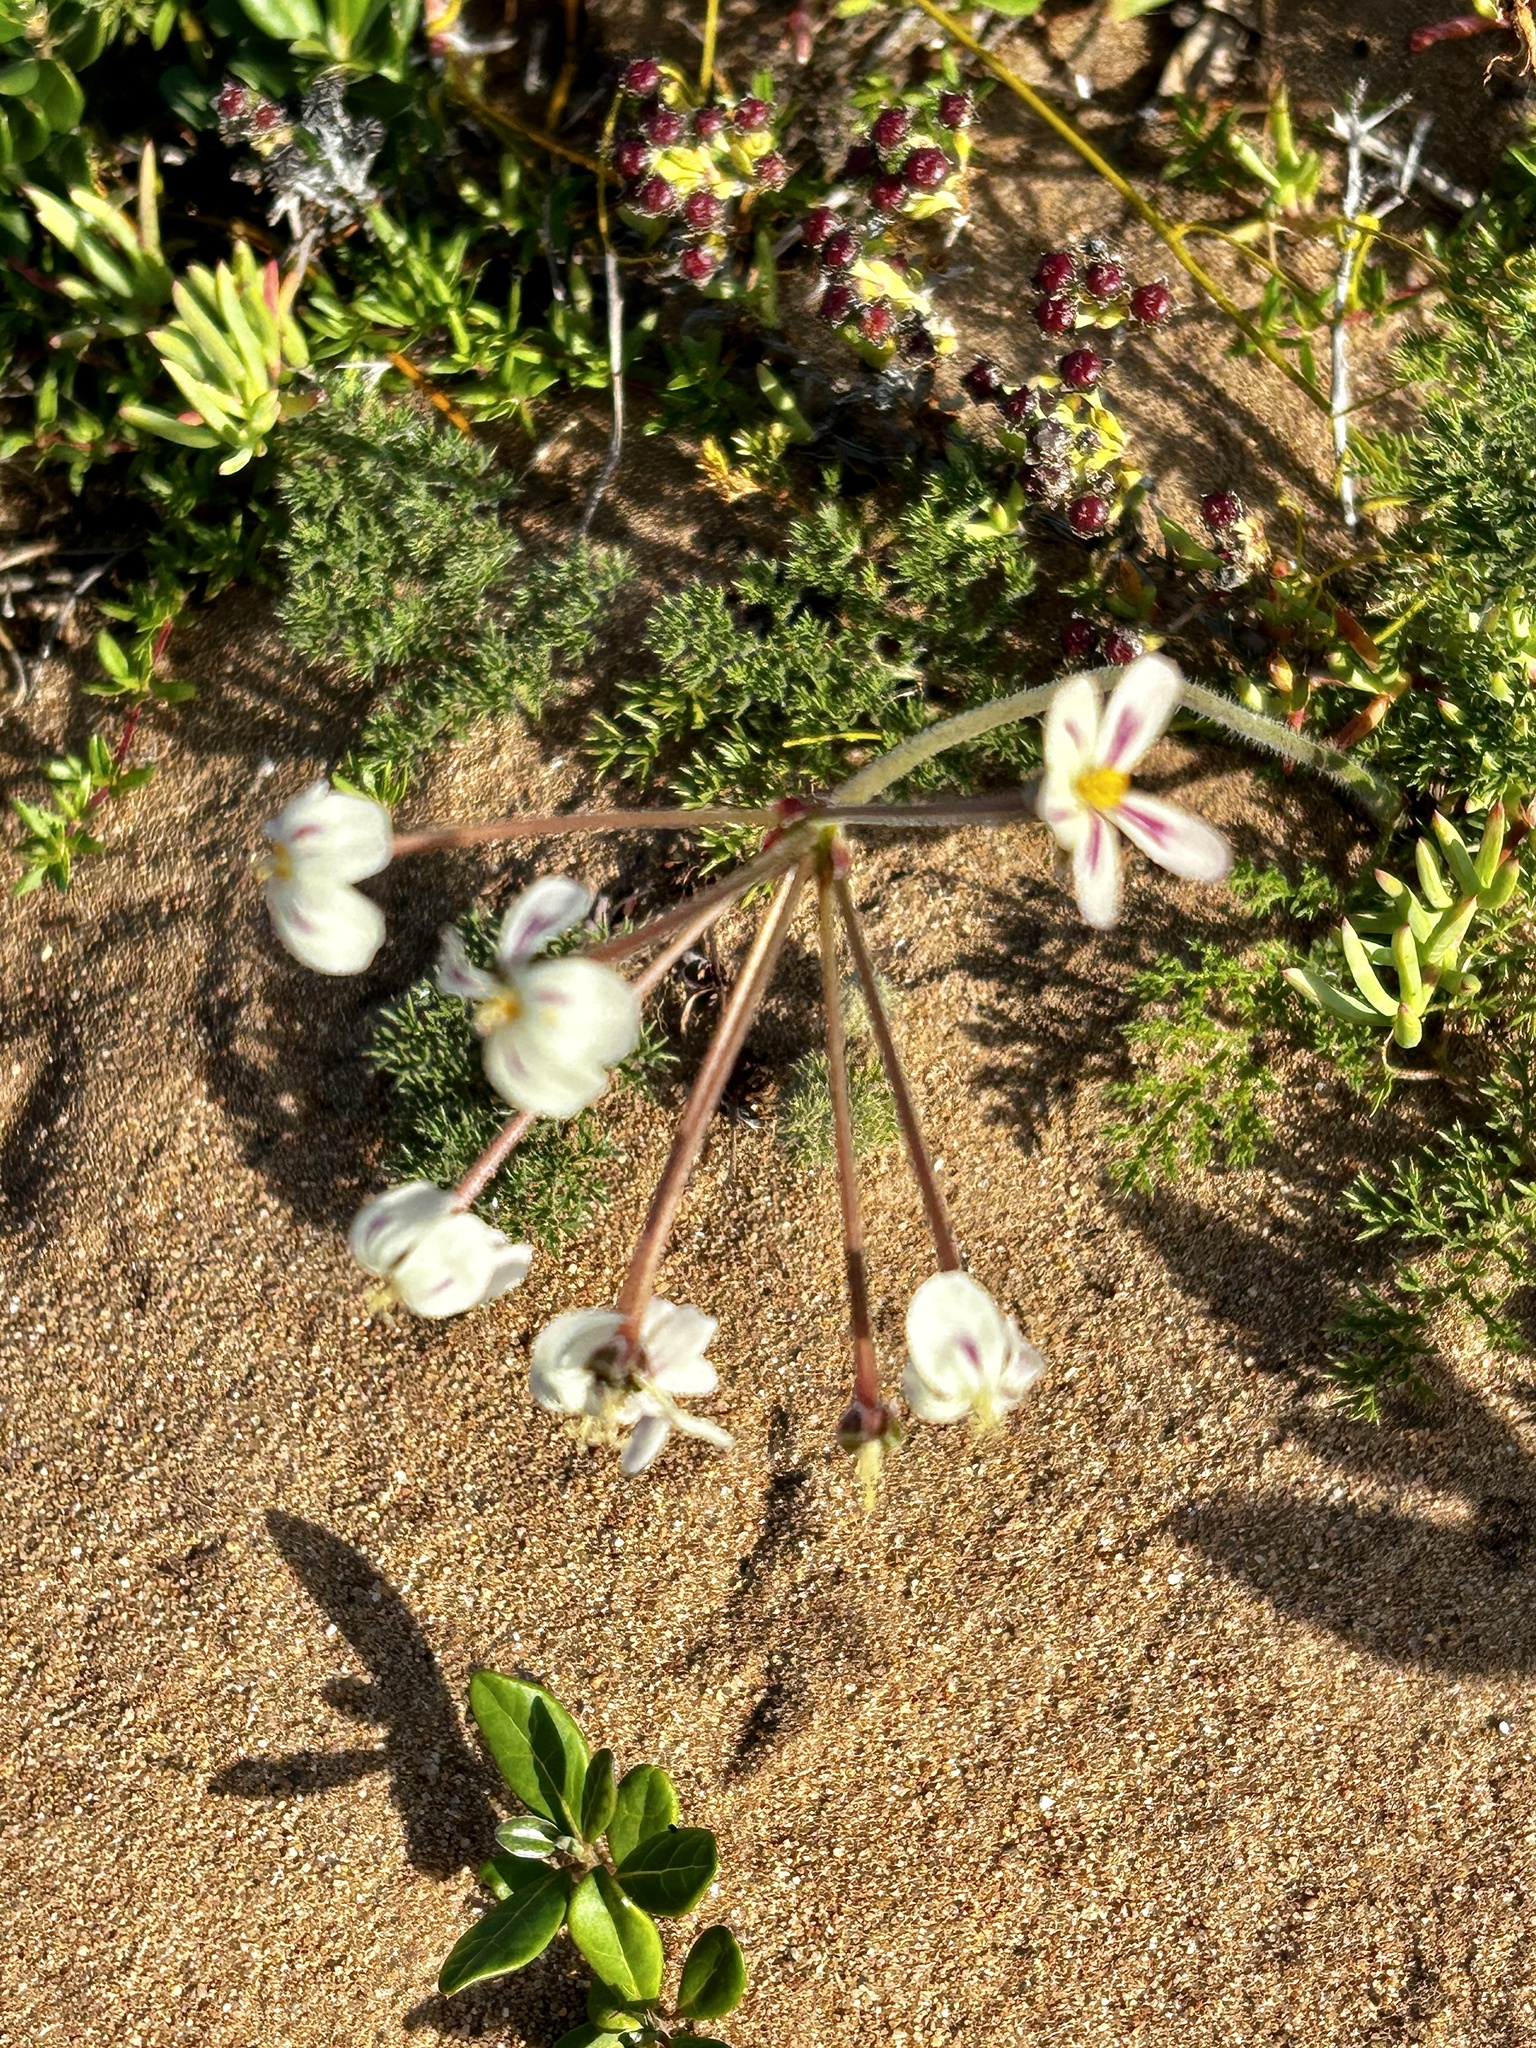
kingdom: Plantae
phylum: Tracheophyta
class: Magnoliopsida
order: Geraniales
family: Geraniaceae
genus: Pelargonium
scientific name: Pelargonium triste
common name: Night-scent pelargonium
